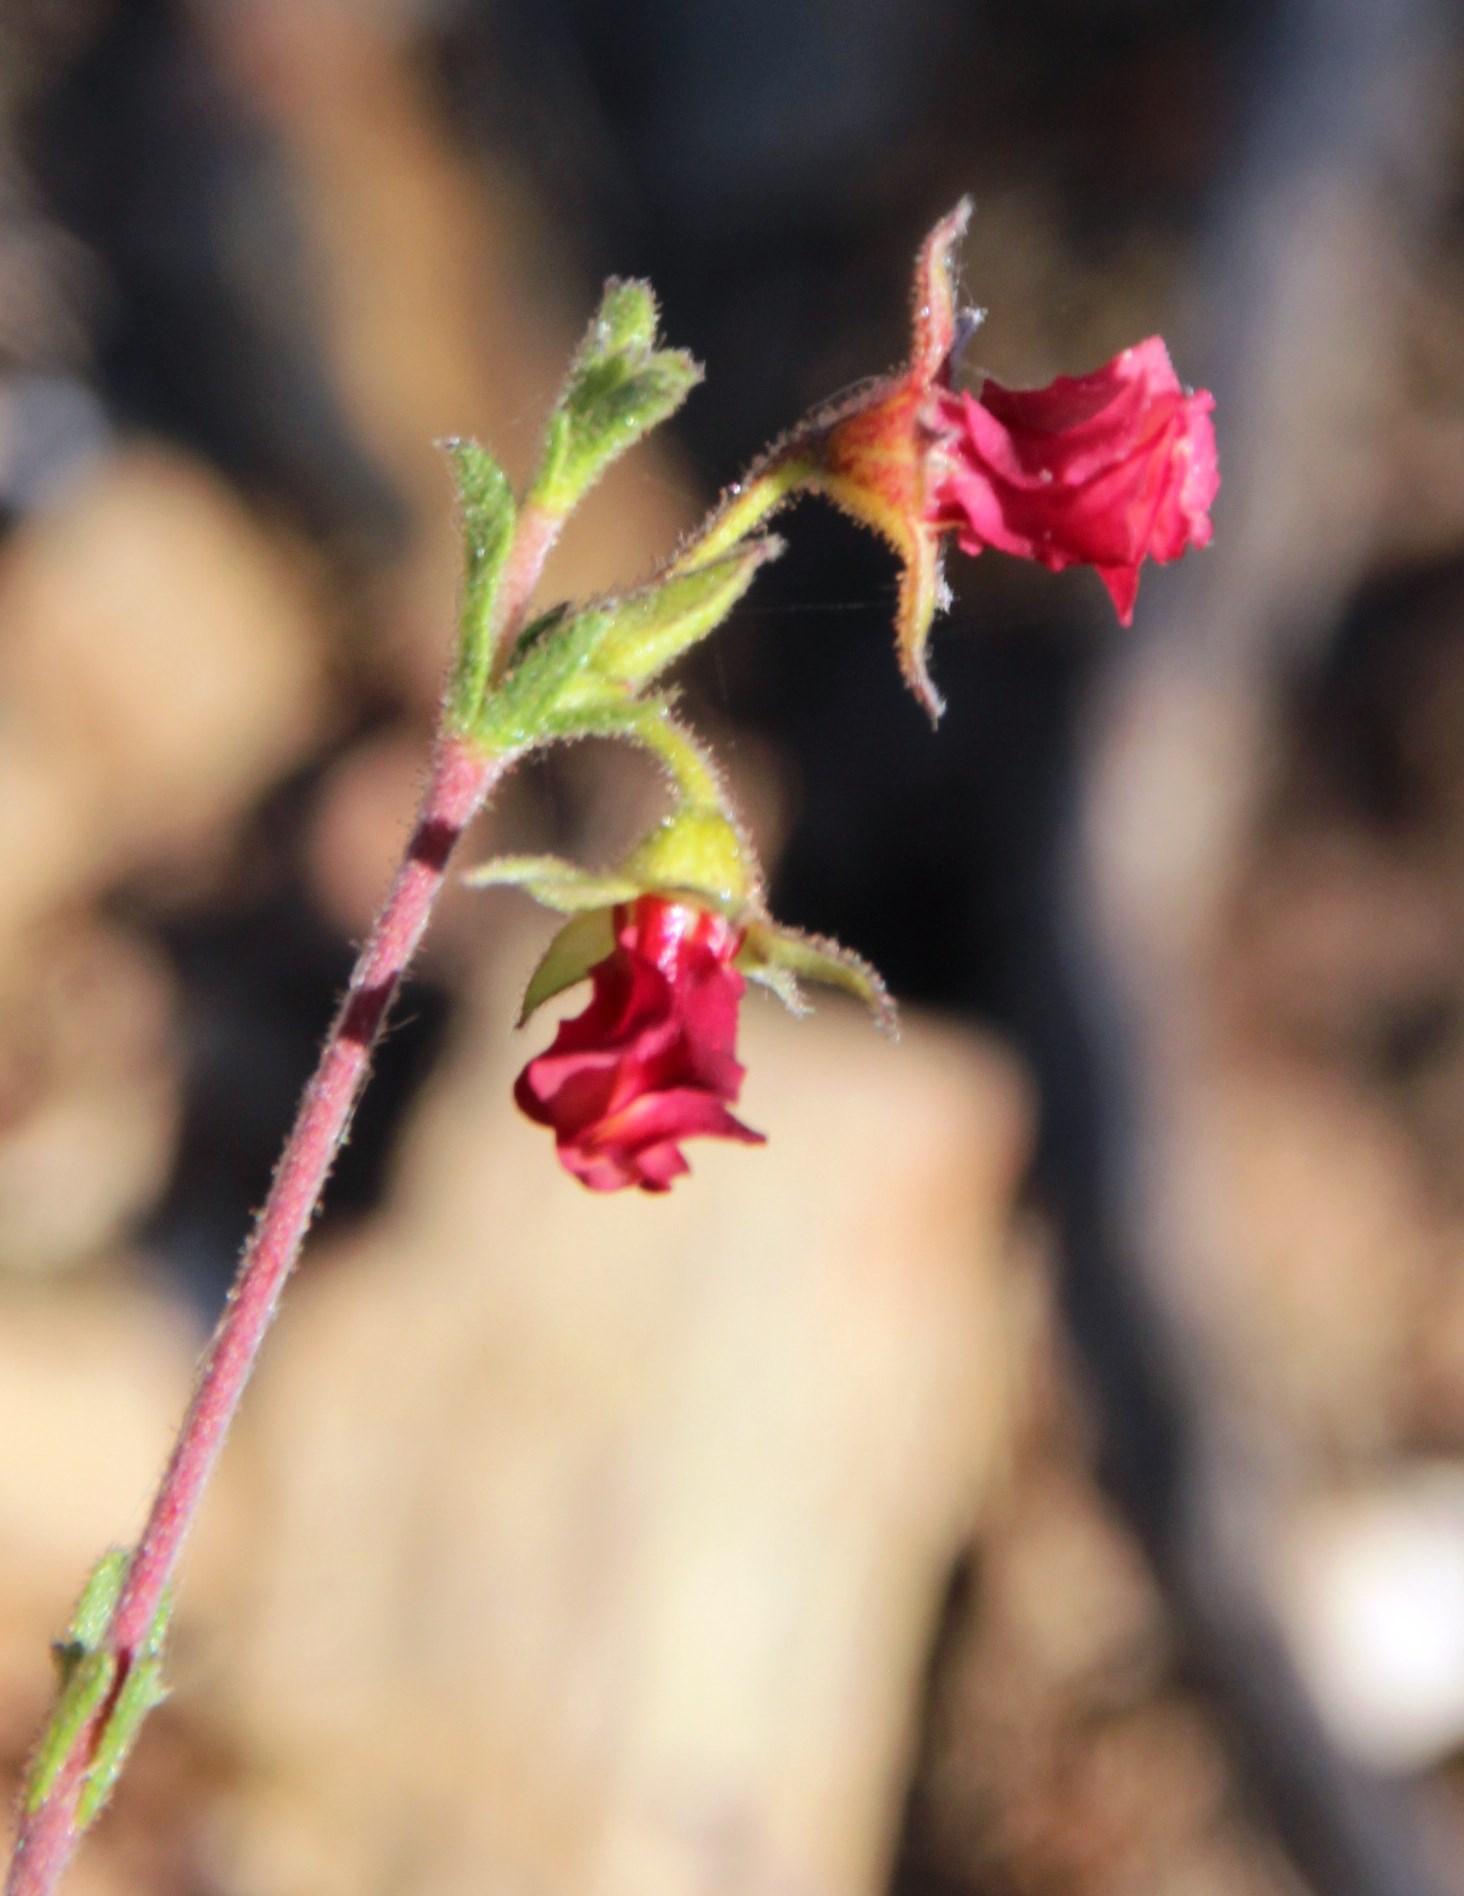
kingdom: Plantae
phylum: Tracheophyta
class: Magnoliopsida
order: Malvales
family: Malvaceae
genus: Hermannia
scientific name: Hermannia flammula
